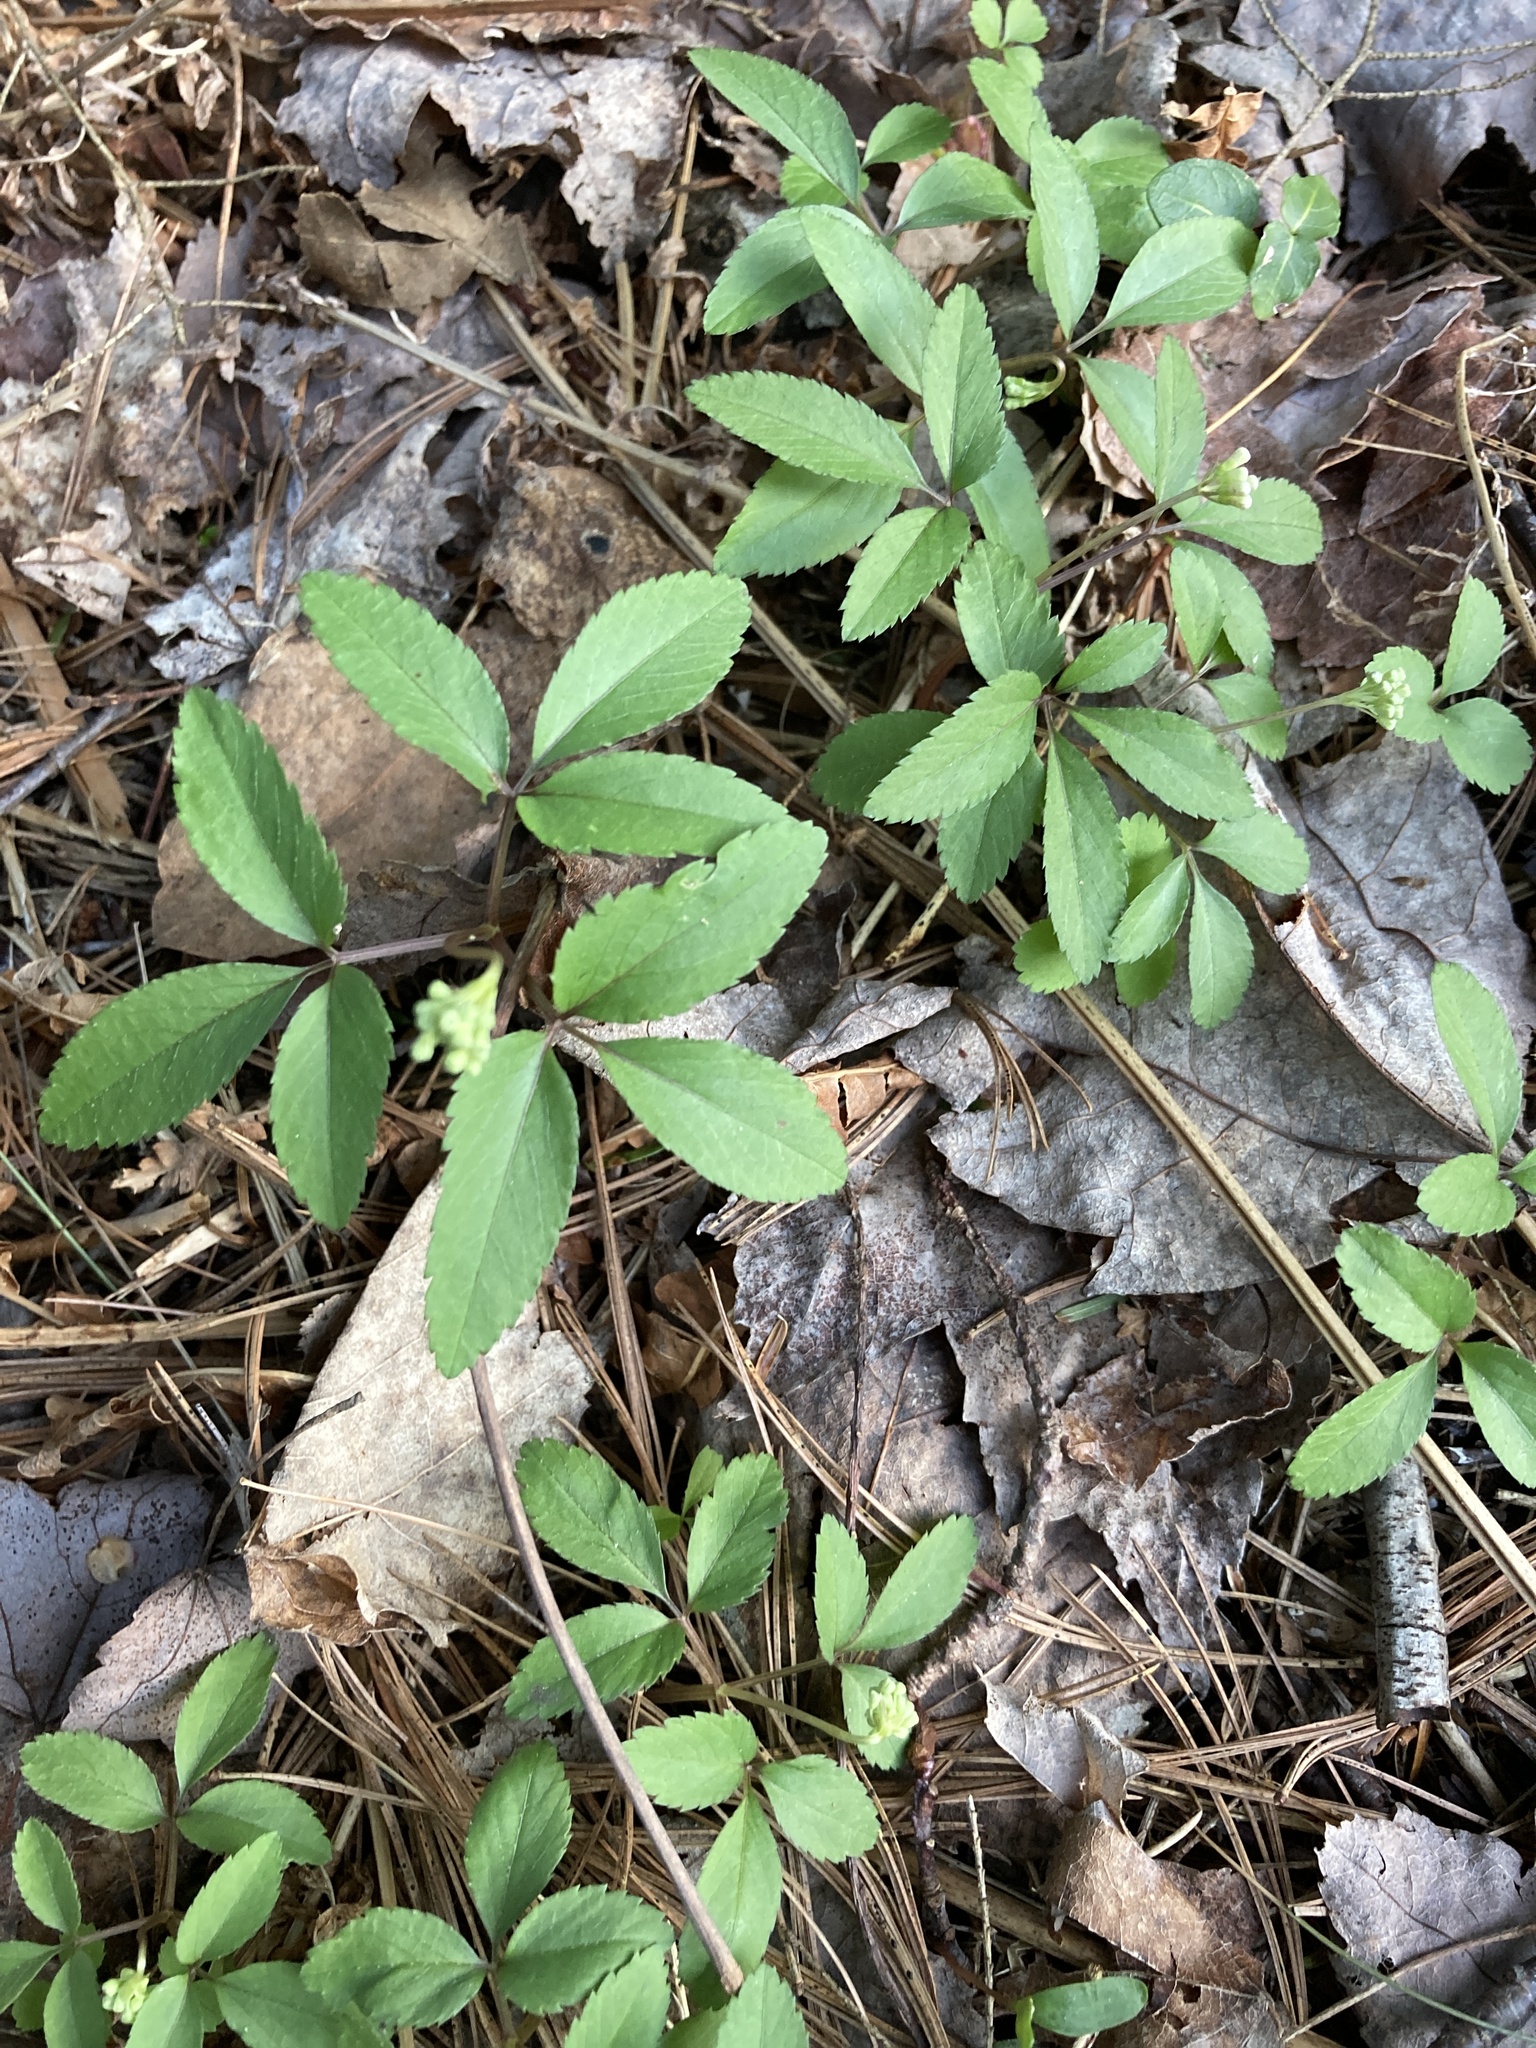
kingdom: Plantae
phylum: Tracheophyta
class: Magnoliopsida
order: Apiales
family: Araliaceae
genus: Panax
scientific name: Panax trifolius
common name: Dwarf ginseng
